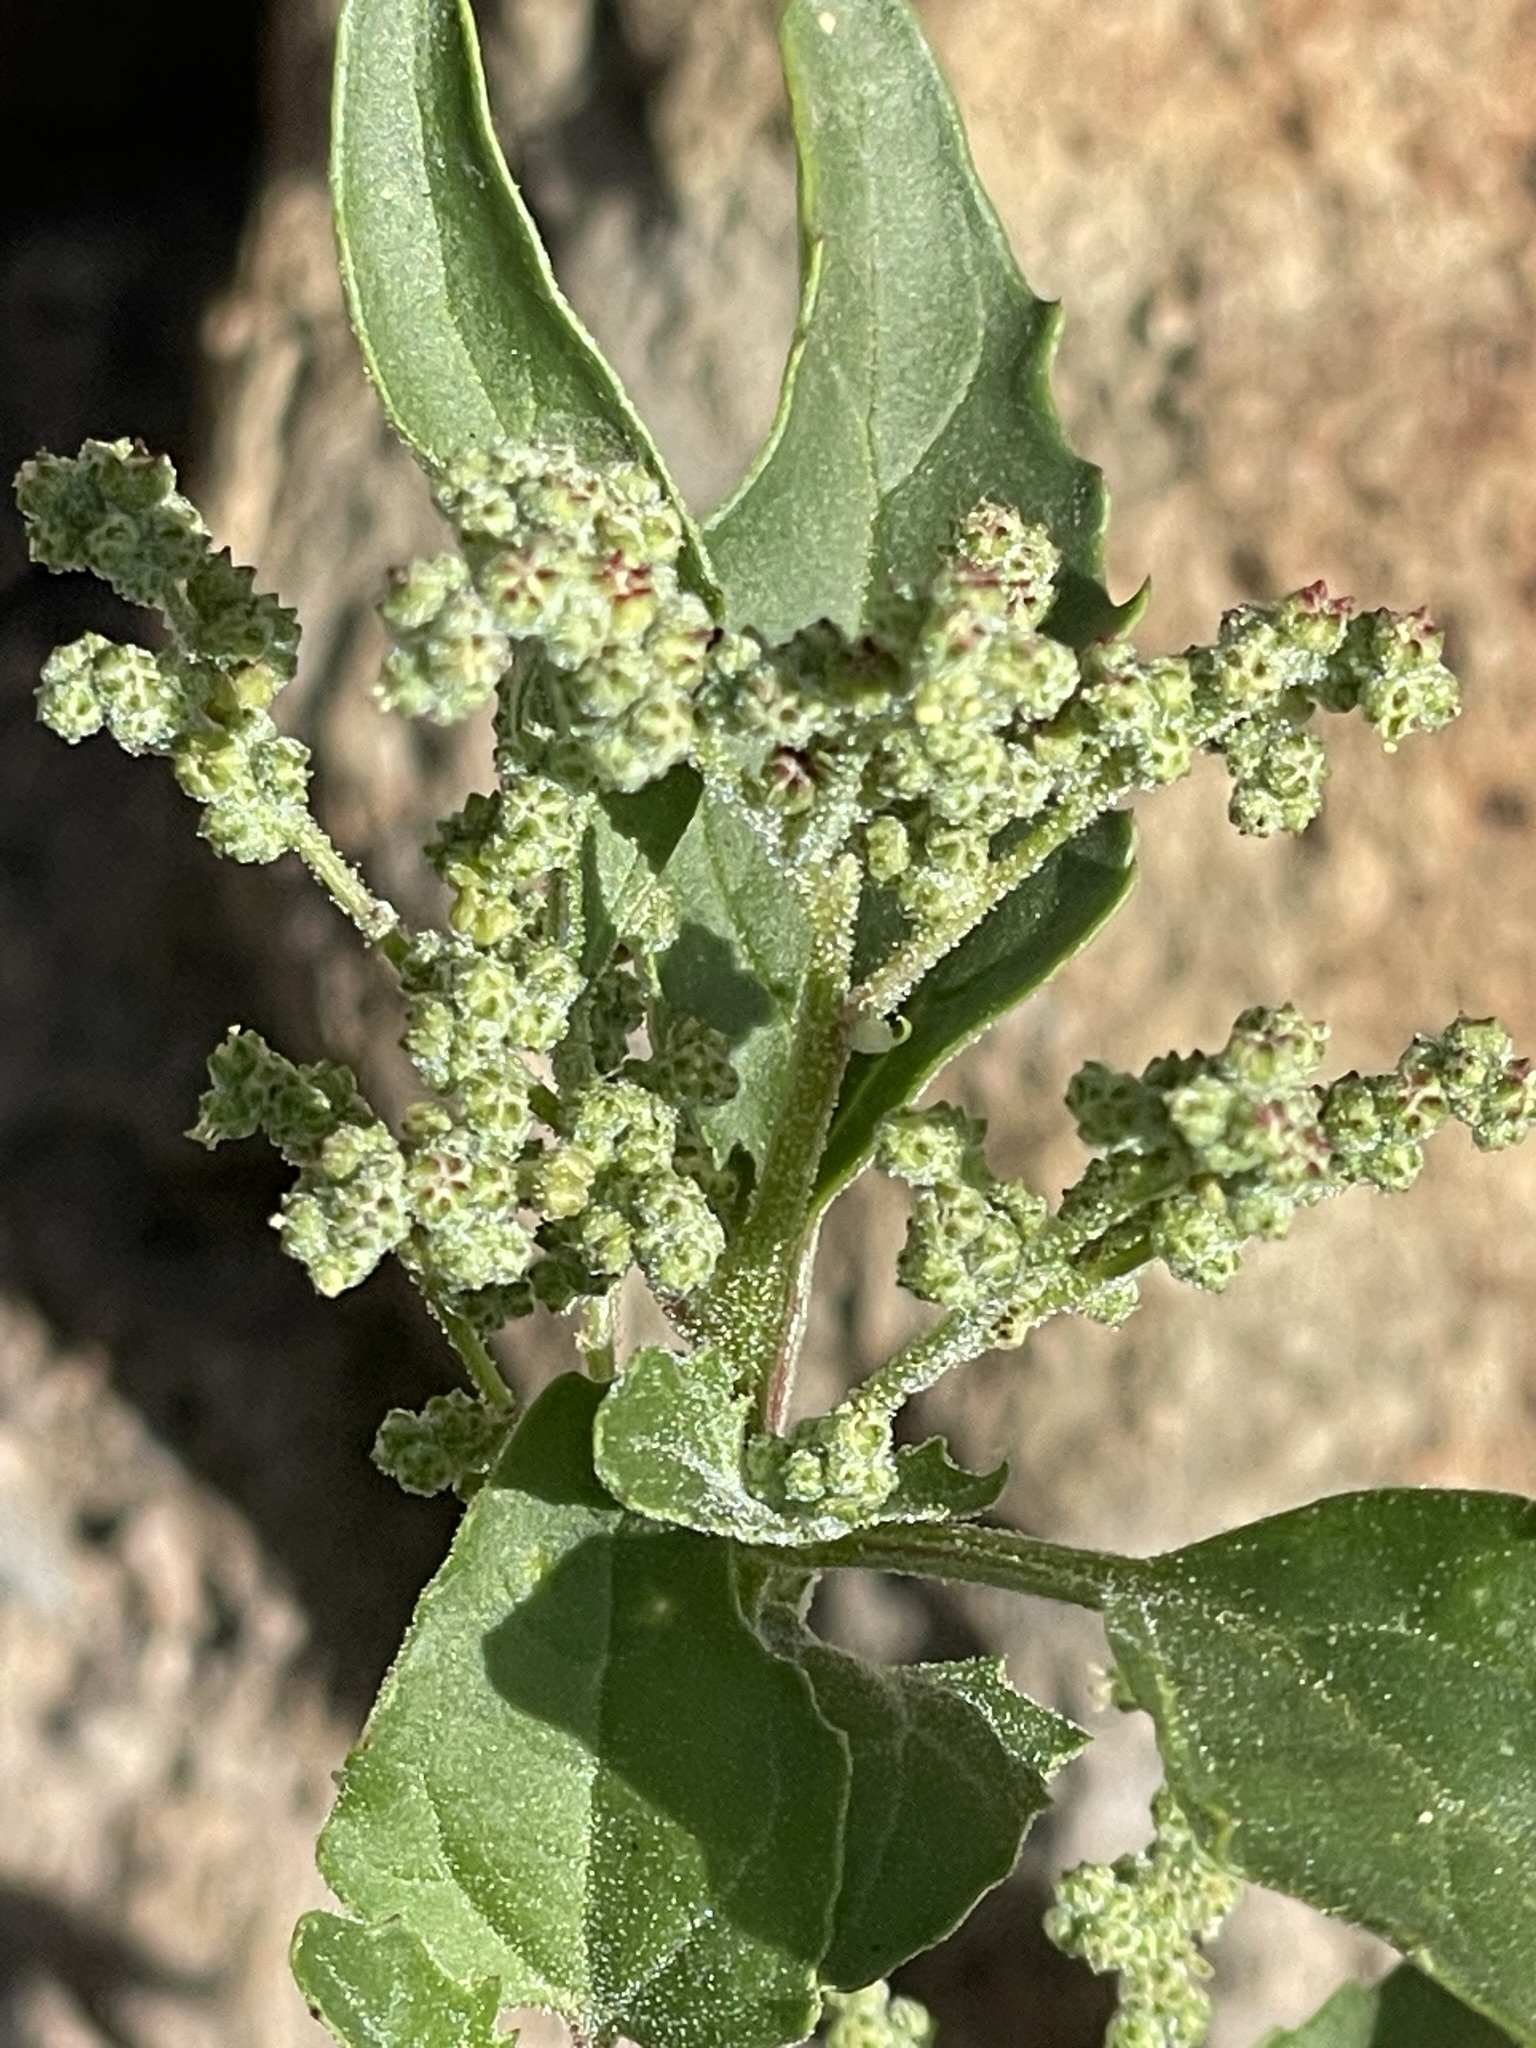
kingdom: Plantae
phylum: Tracheophyta
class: Magnoliopsida
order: Caryophyllales
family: Amaranthaceae
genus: Chenopodiastrum
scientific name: Chenopodiastrum murale
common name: Sowbane
